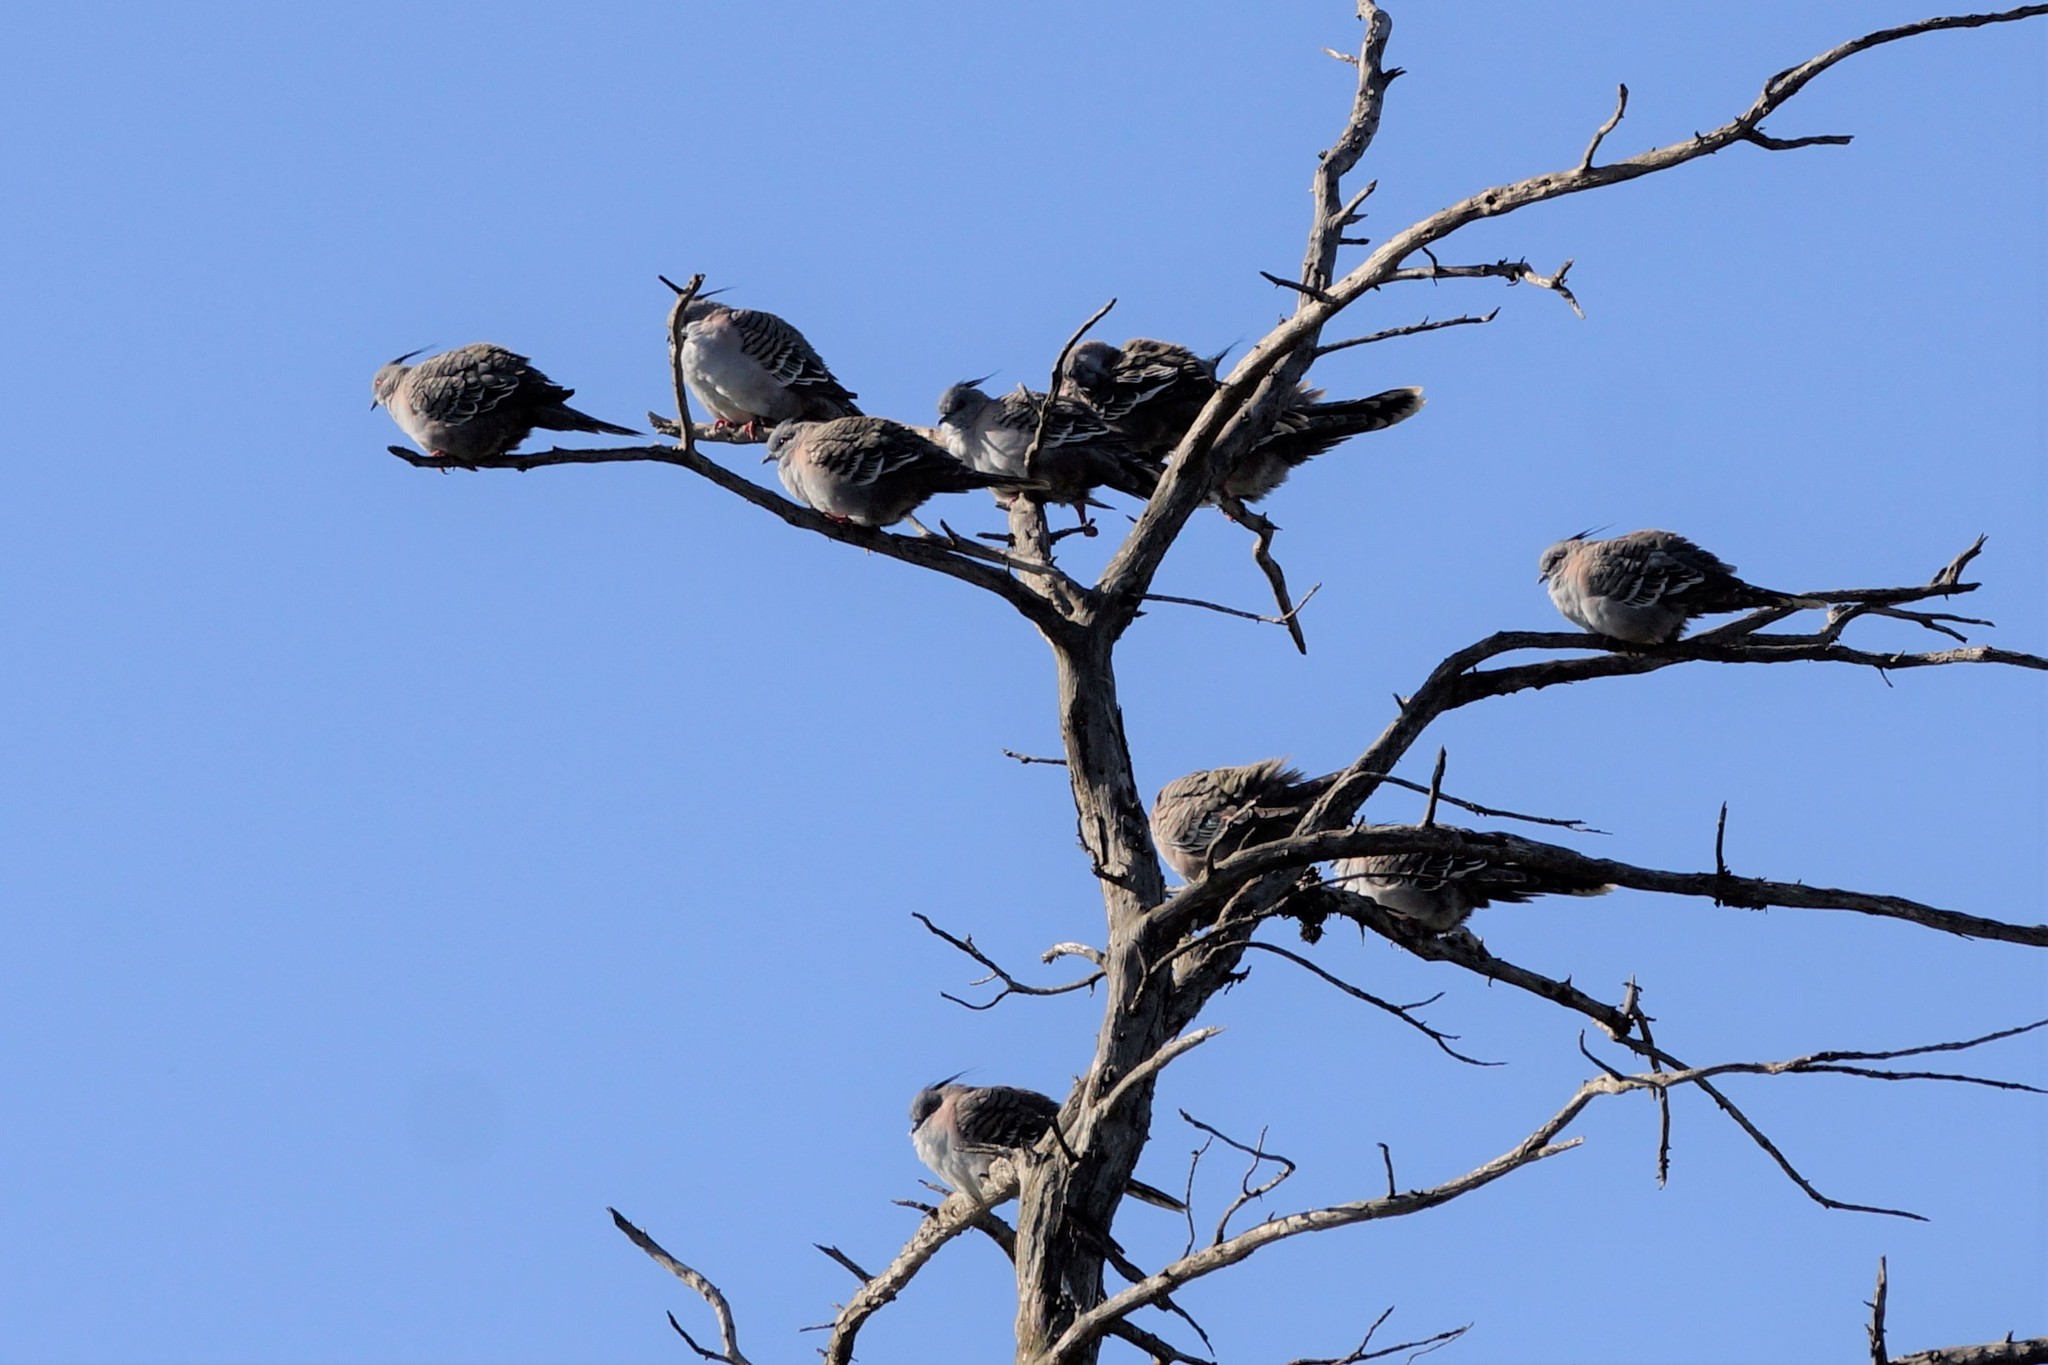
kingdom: Animalia
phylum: Chordata
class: Aves
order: Columbiformes
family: Columbidae
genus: Ocyphaps
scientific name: Ocyphaps lophotes
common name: Crested pigeon
